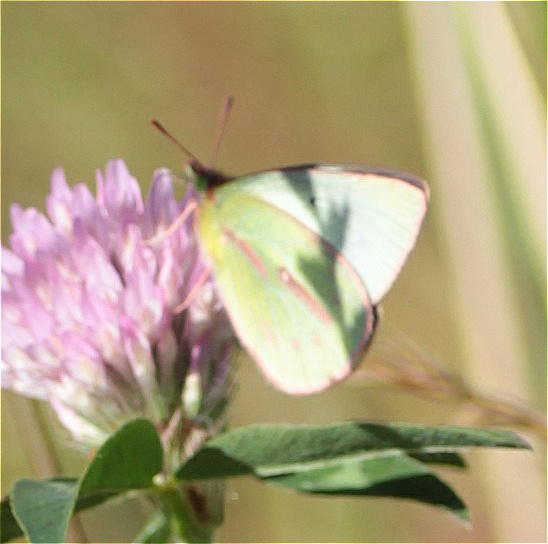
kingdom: Animalia
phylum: Arthropoda
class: Insecta
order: Lepidoptera
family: Pieridae
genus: Colias
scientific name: Colias dimera
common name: Dimera sulphur
